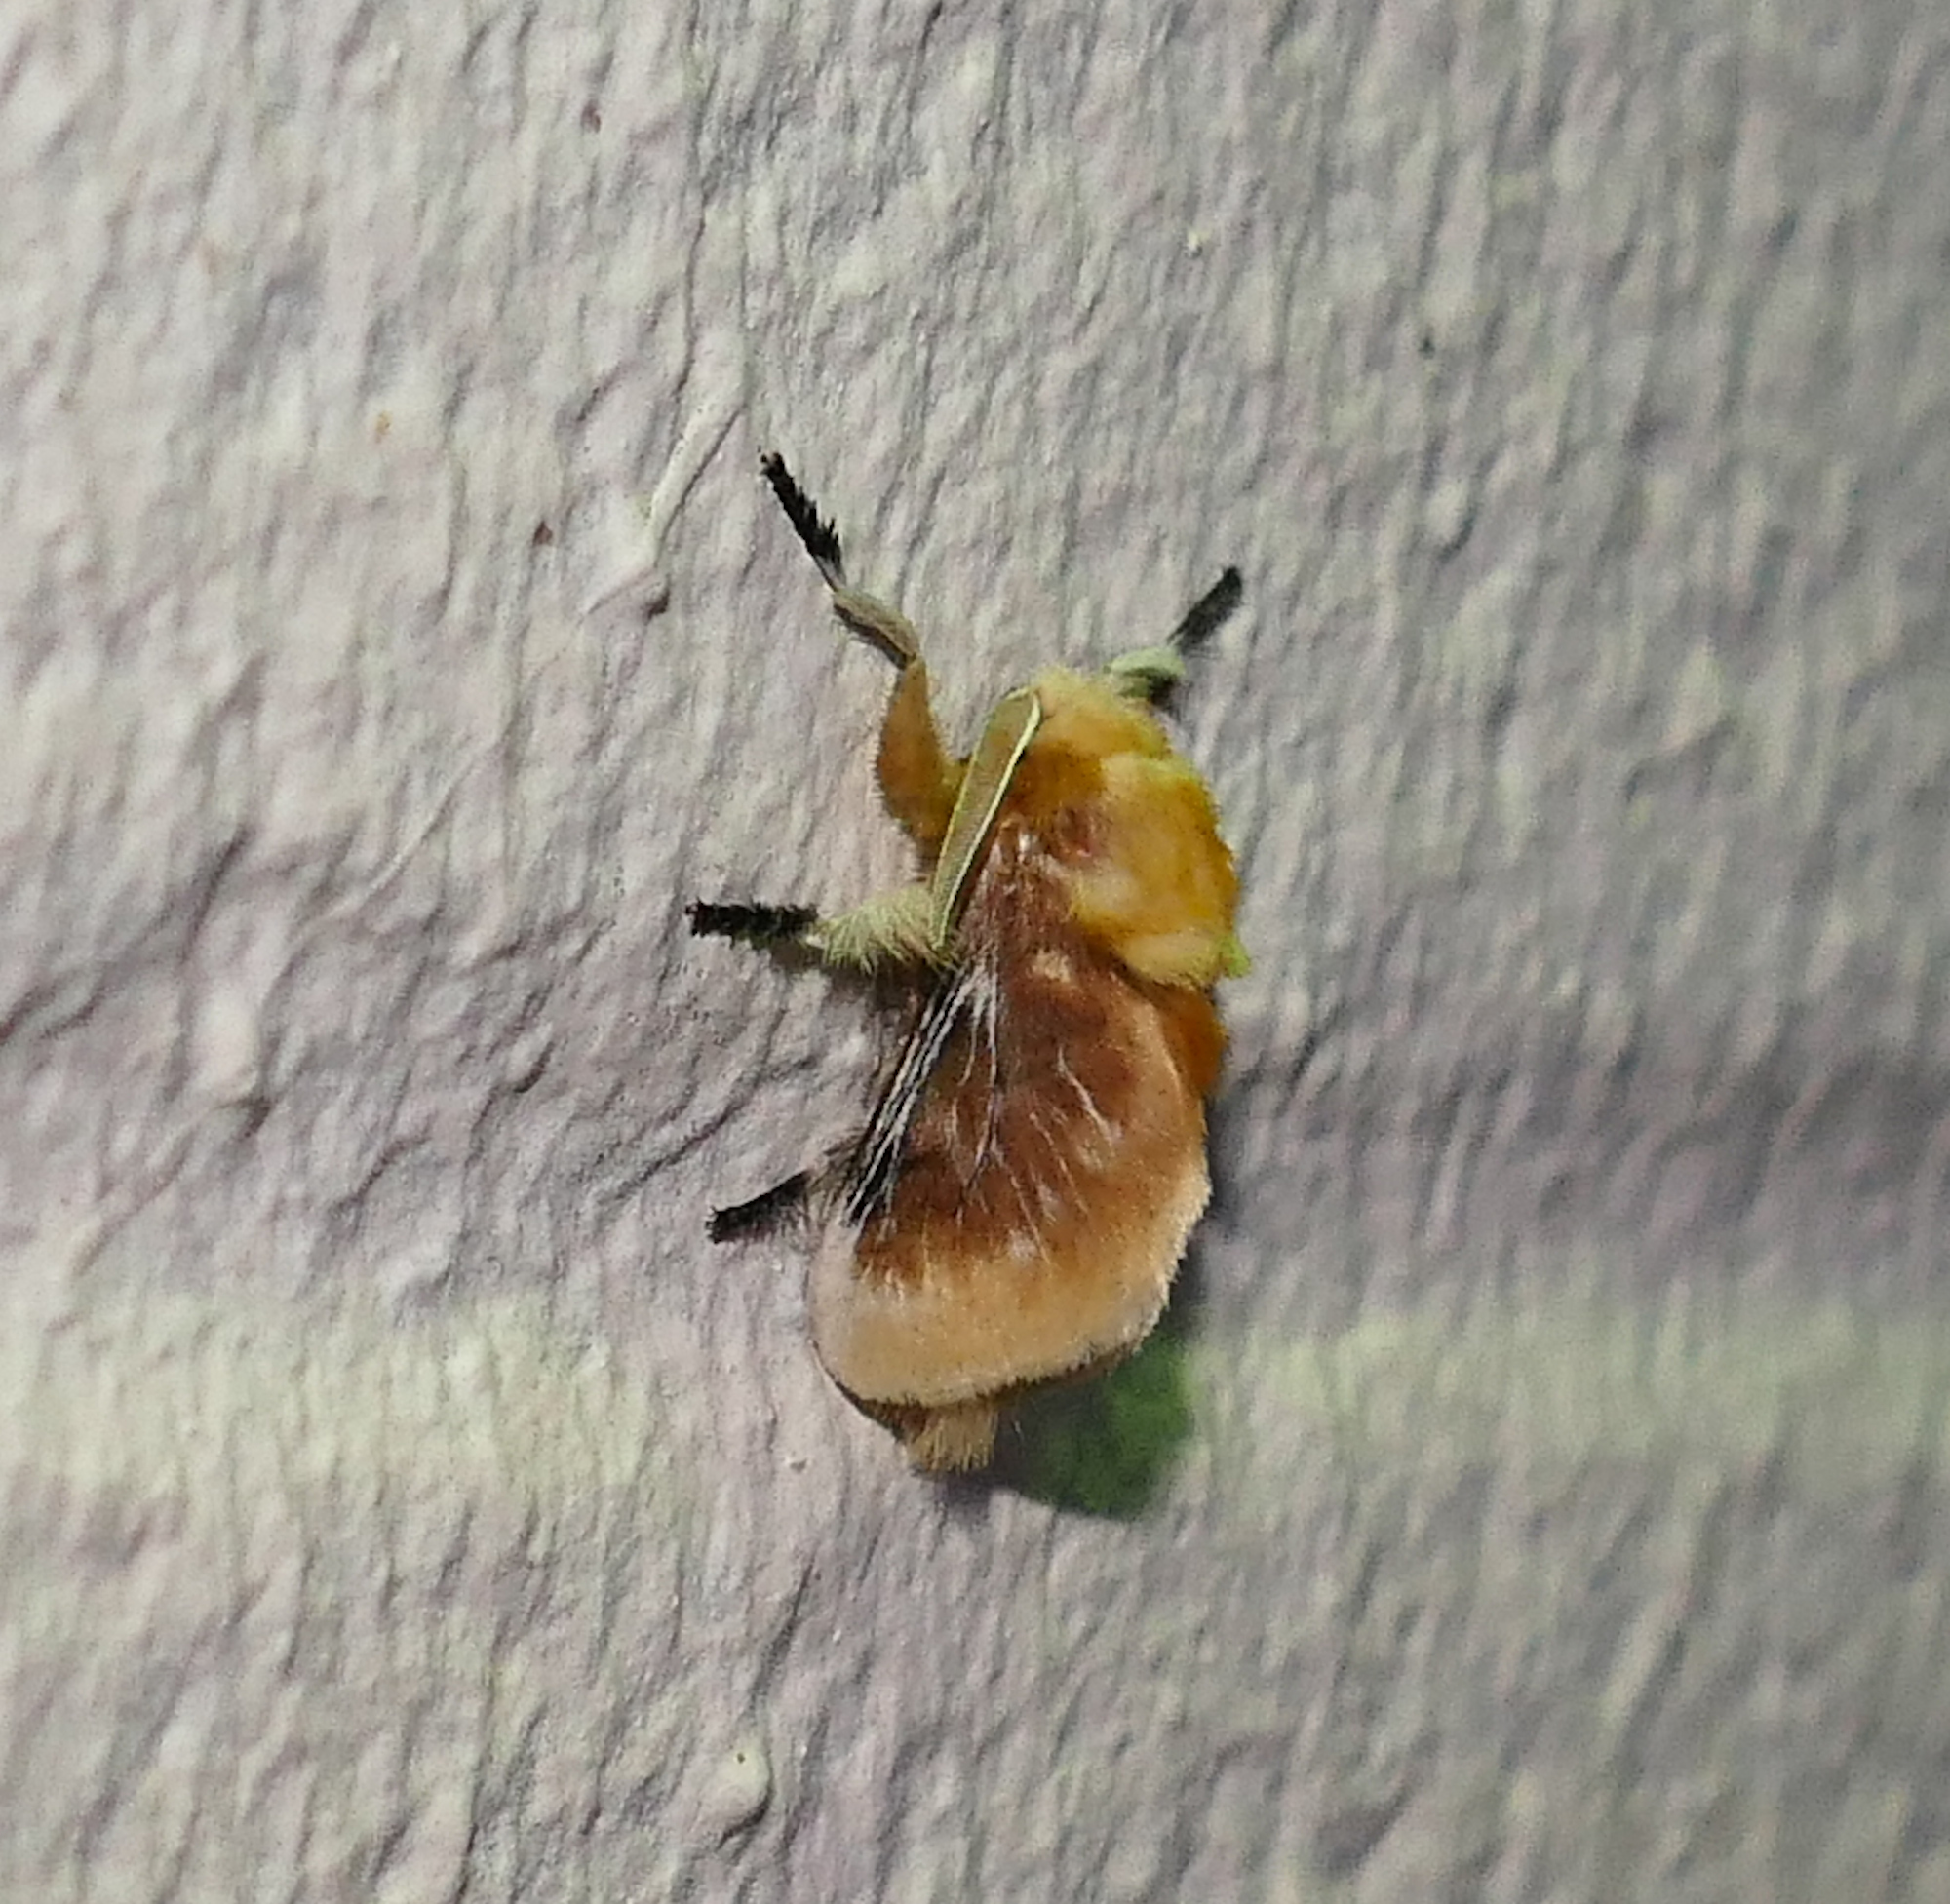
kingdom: Animalia
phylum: Arthropoda
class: Insecta
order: Lepidoptera
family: Megalopygidae
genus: Megalopyge
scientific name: Megalopyge opercularis
